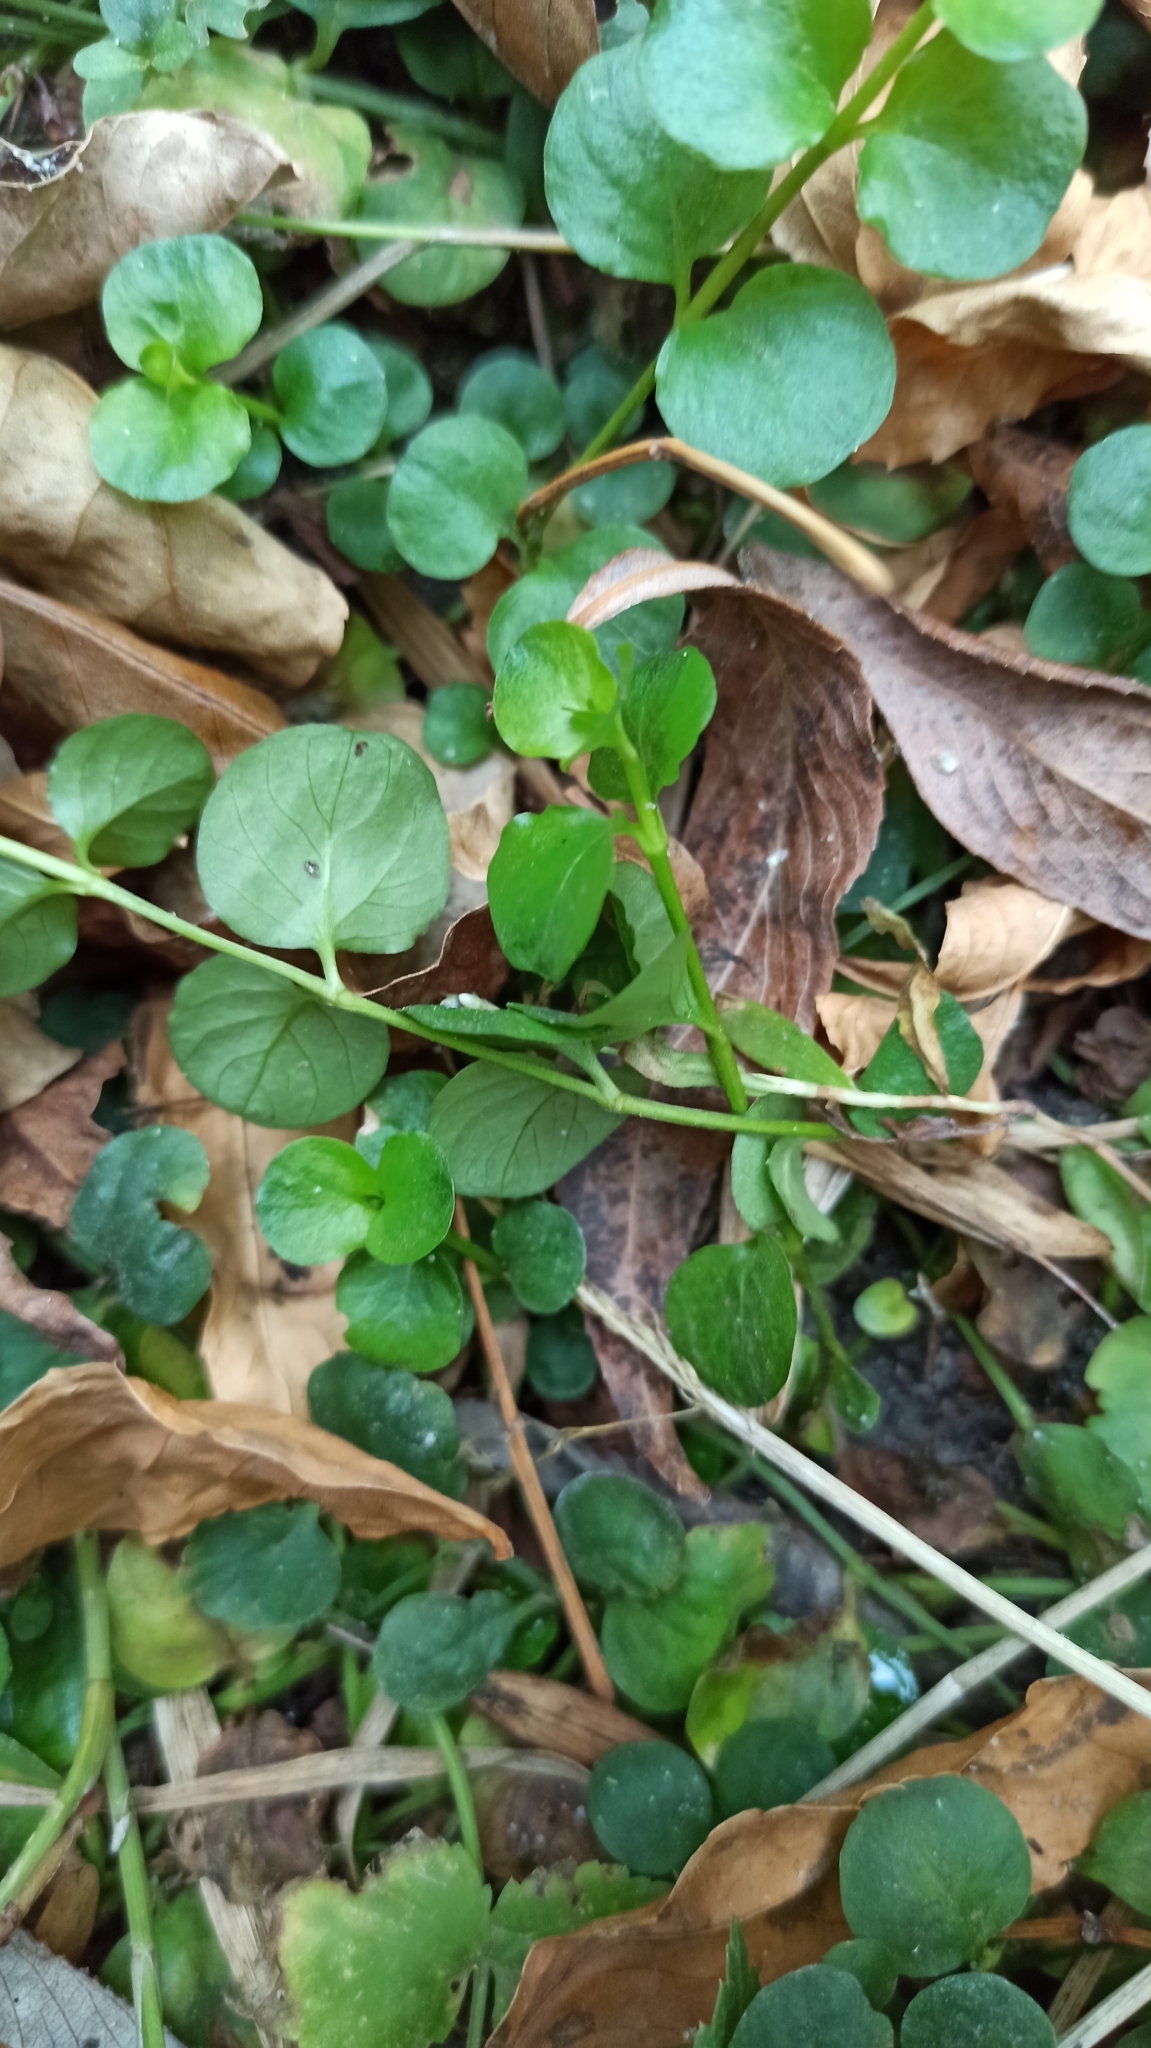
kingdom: Plantae
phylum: Tracheophyta
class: Magnoliopsida
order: Ericales
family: Primulaceae
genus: Lysimachia
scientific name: Lysimachia nummularia
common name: Moneywort
